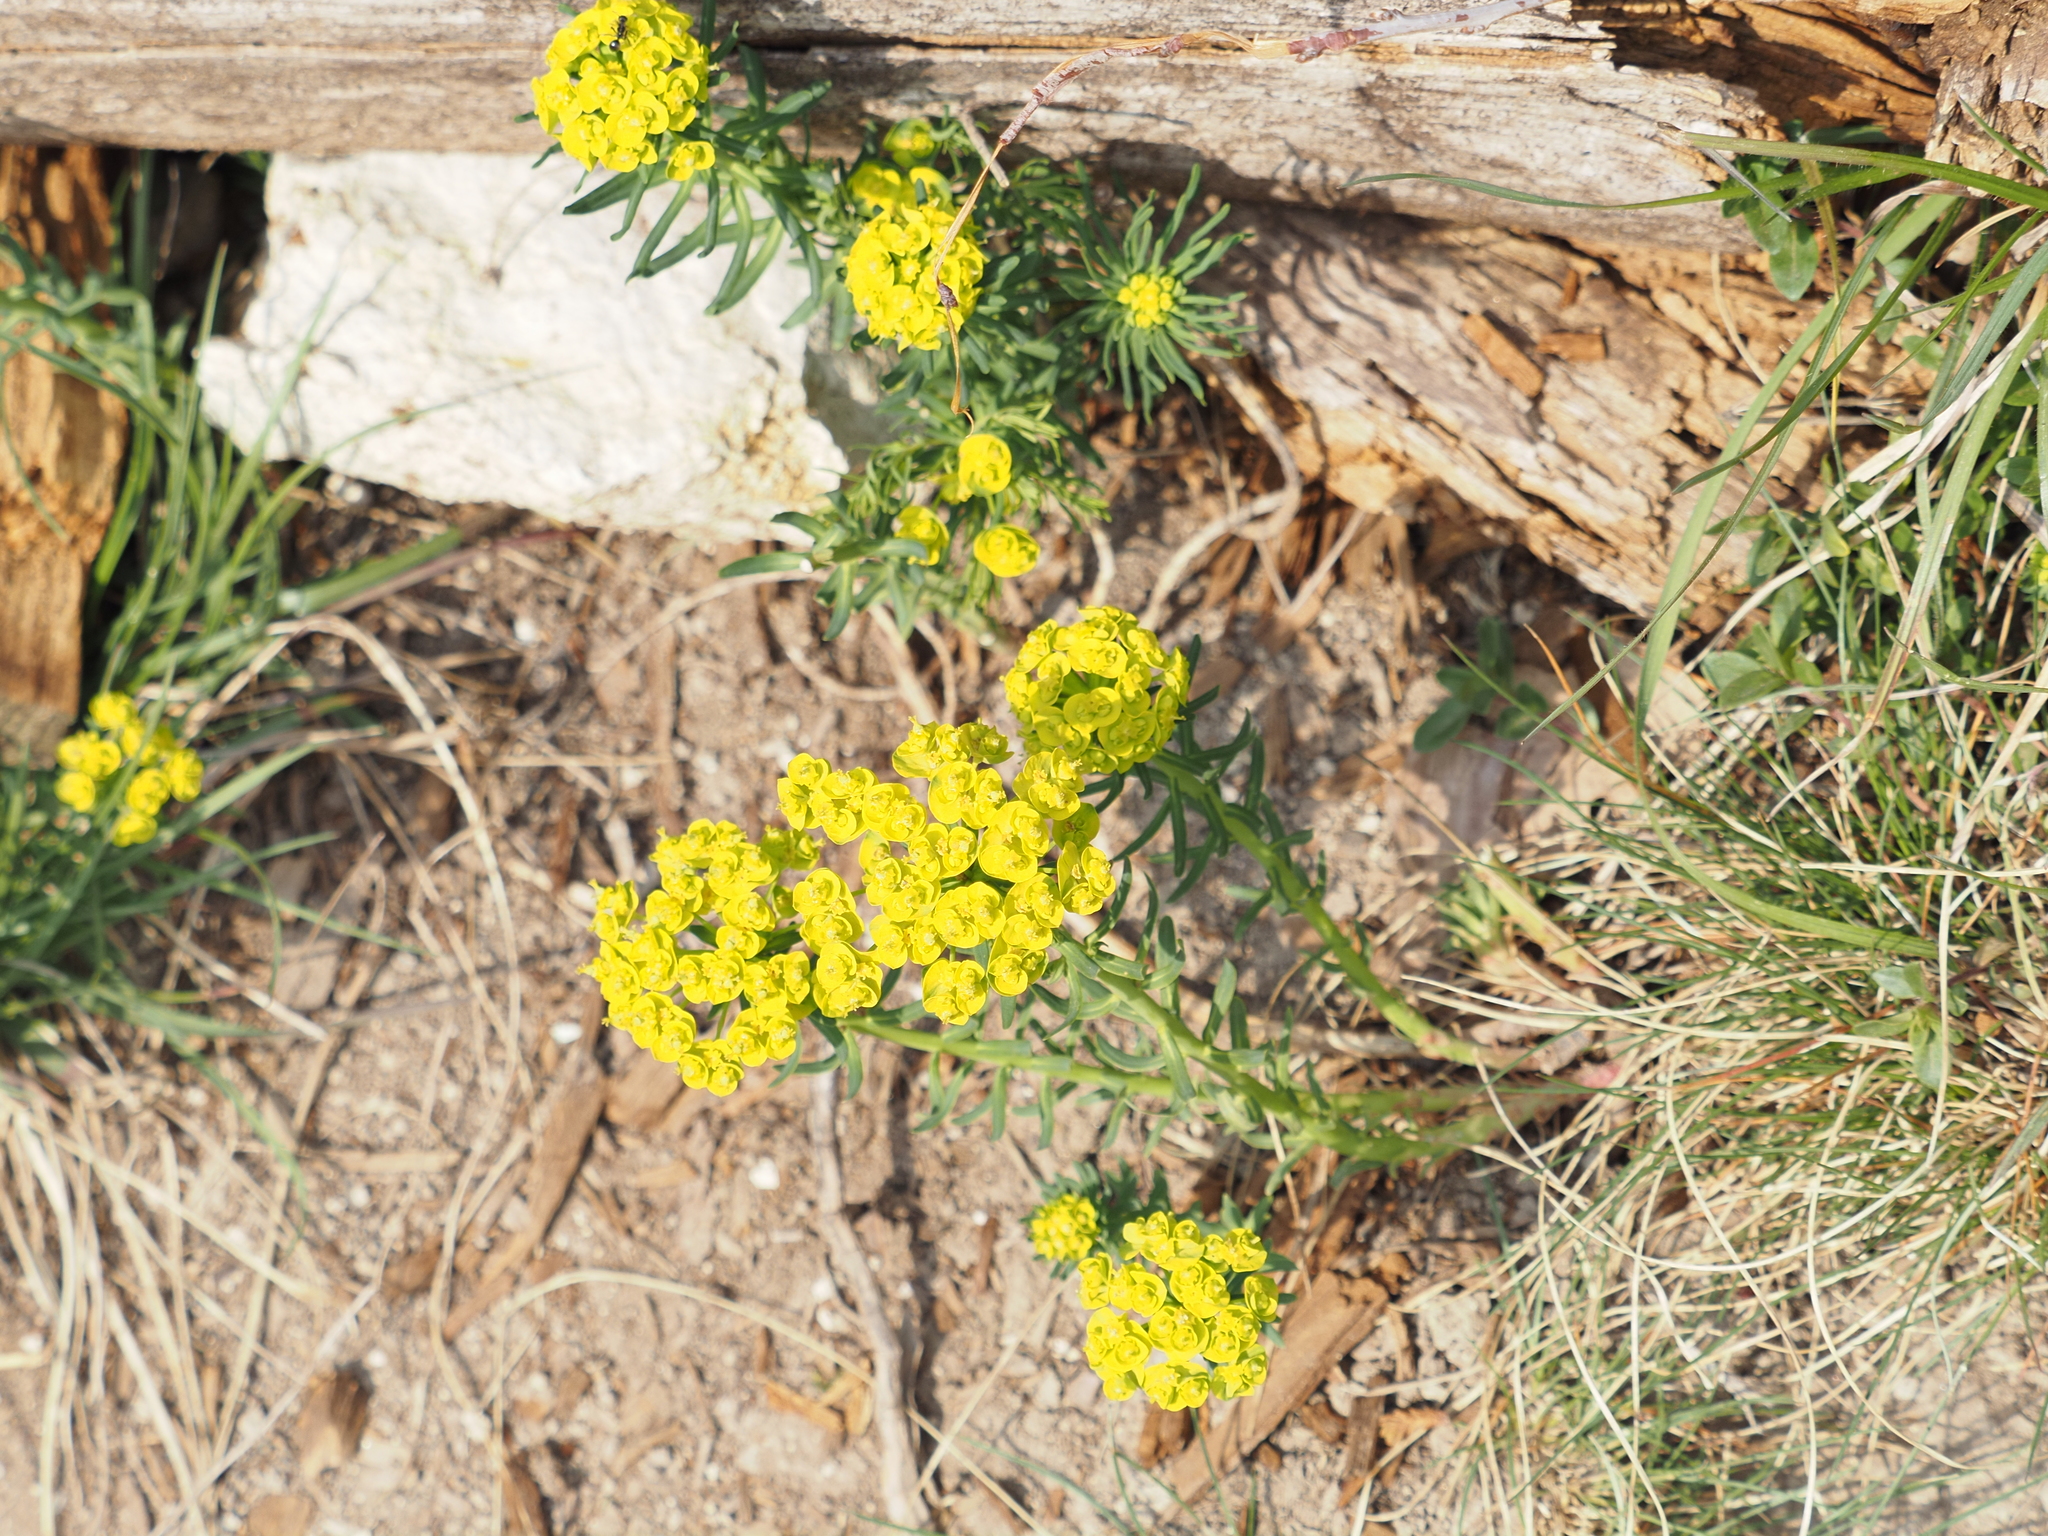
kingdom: Plantae
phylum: Tracheophyta
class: Magnoliopsida
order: Malpighiales
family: Euphorbiaceae
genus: Euphorbia
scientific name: Euphorbia cyparissias
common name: Cypress spurge
